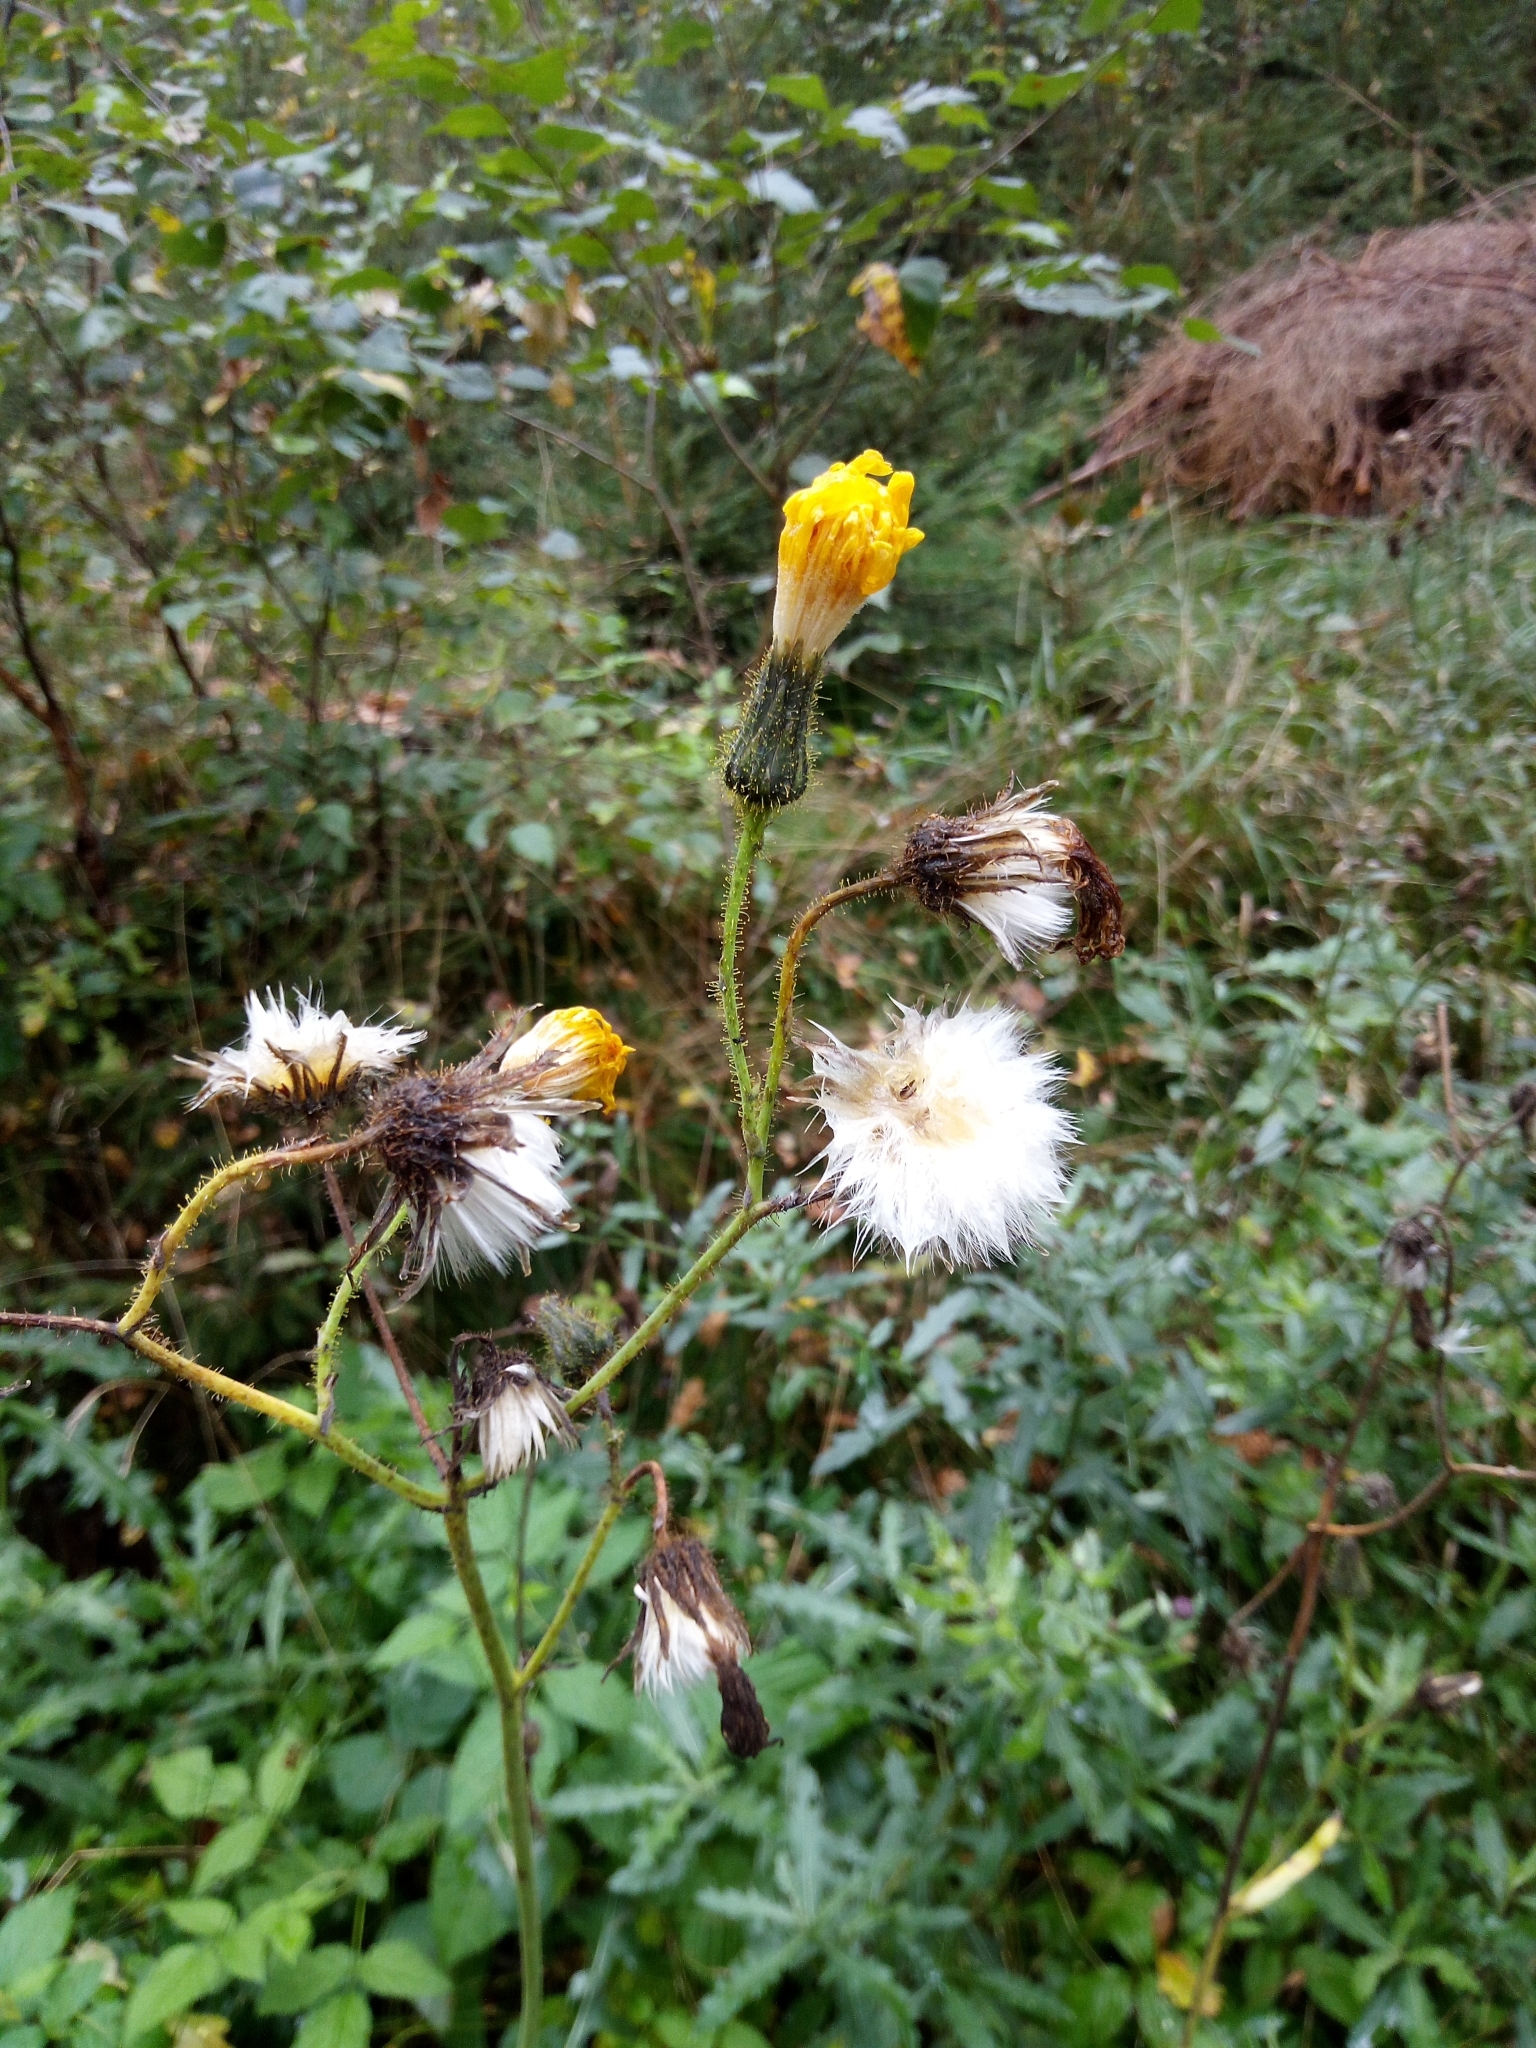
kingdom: Plantae
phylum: Tracheophyta
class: Magnoliopsida
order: Asterales
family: Asteraceae
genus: Sonchus
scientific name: Sonchus arvensis
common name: Perennial sow-thistle
